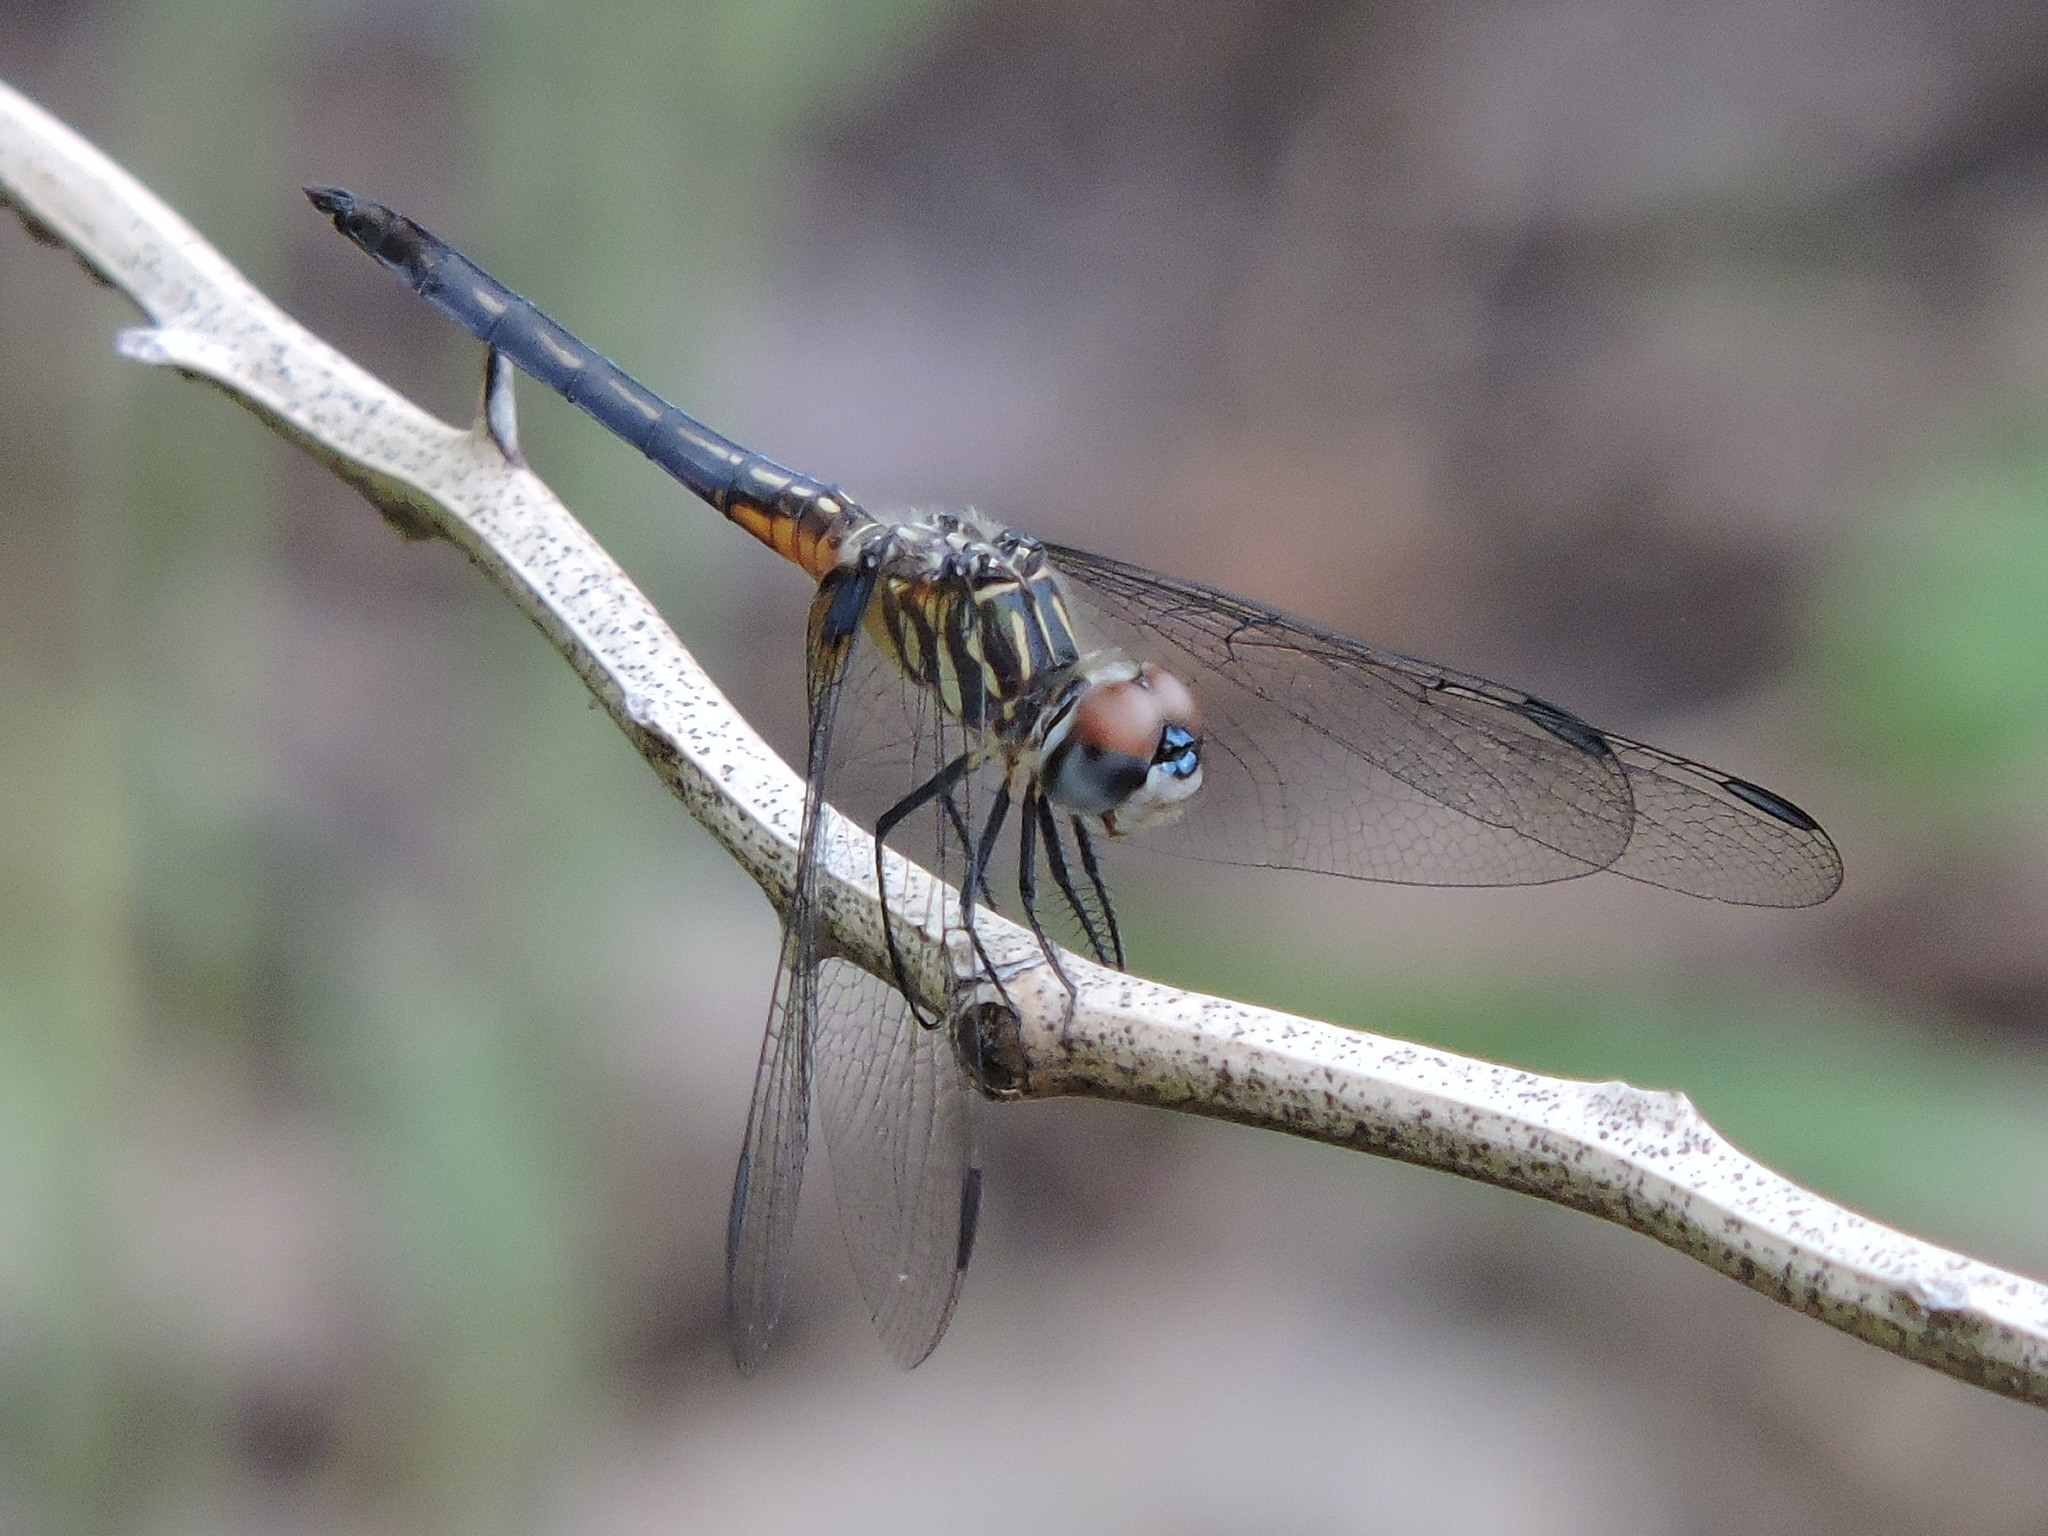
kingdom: Animalia
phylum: Arthropoda
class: Insecta
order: Odonata
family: Libellulidae
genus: Pachydiplax
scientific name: Pachydiplax longipennis
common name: Blue dasher
